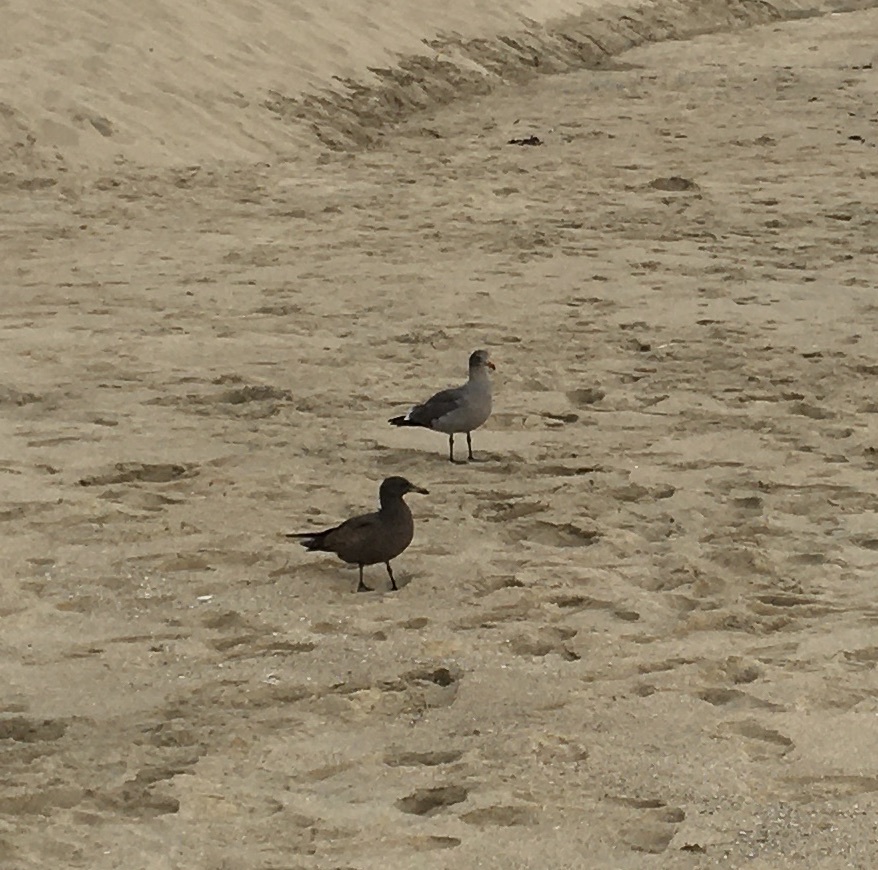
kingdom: Animalia
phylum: Chordata
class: Aves
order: Charadriiformes
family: Laridae
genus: Larus
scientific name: Larus heermanni
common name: Heermann's gull
